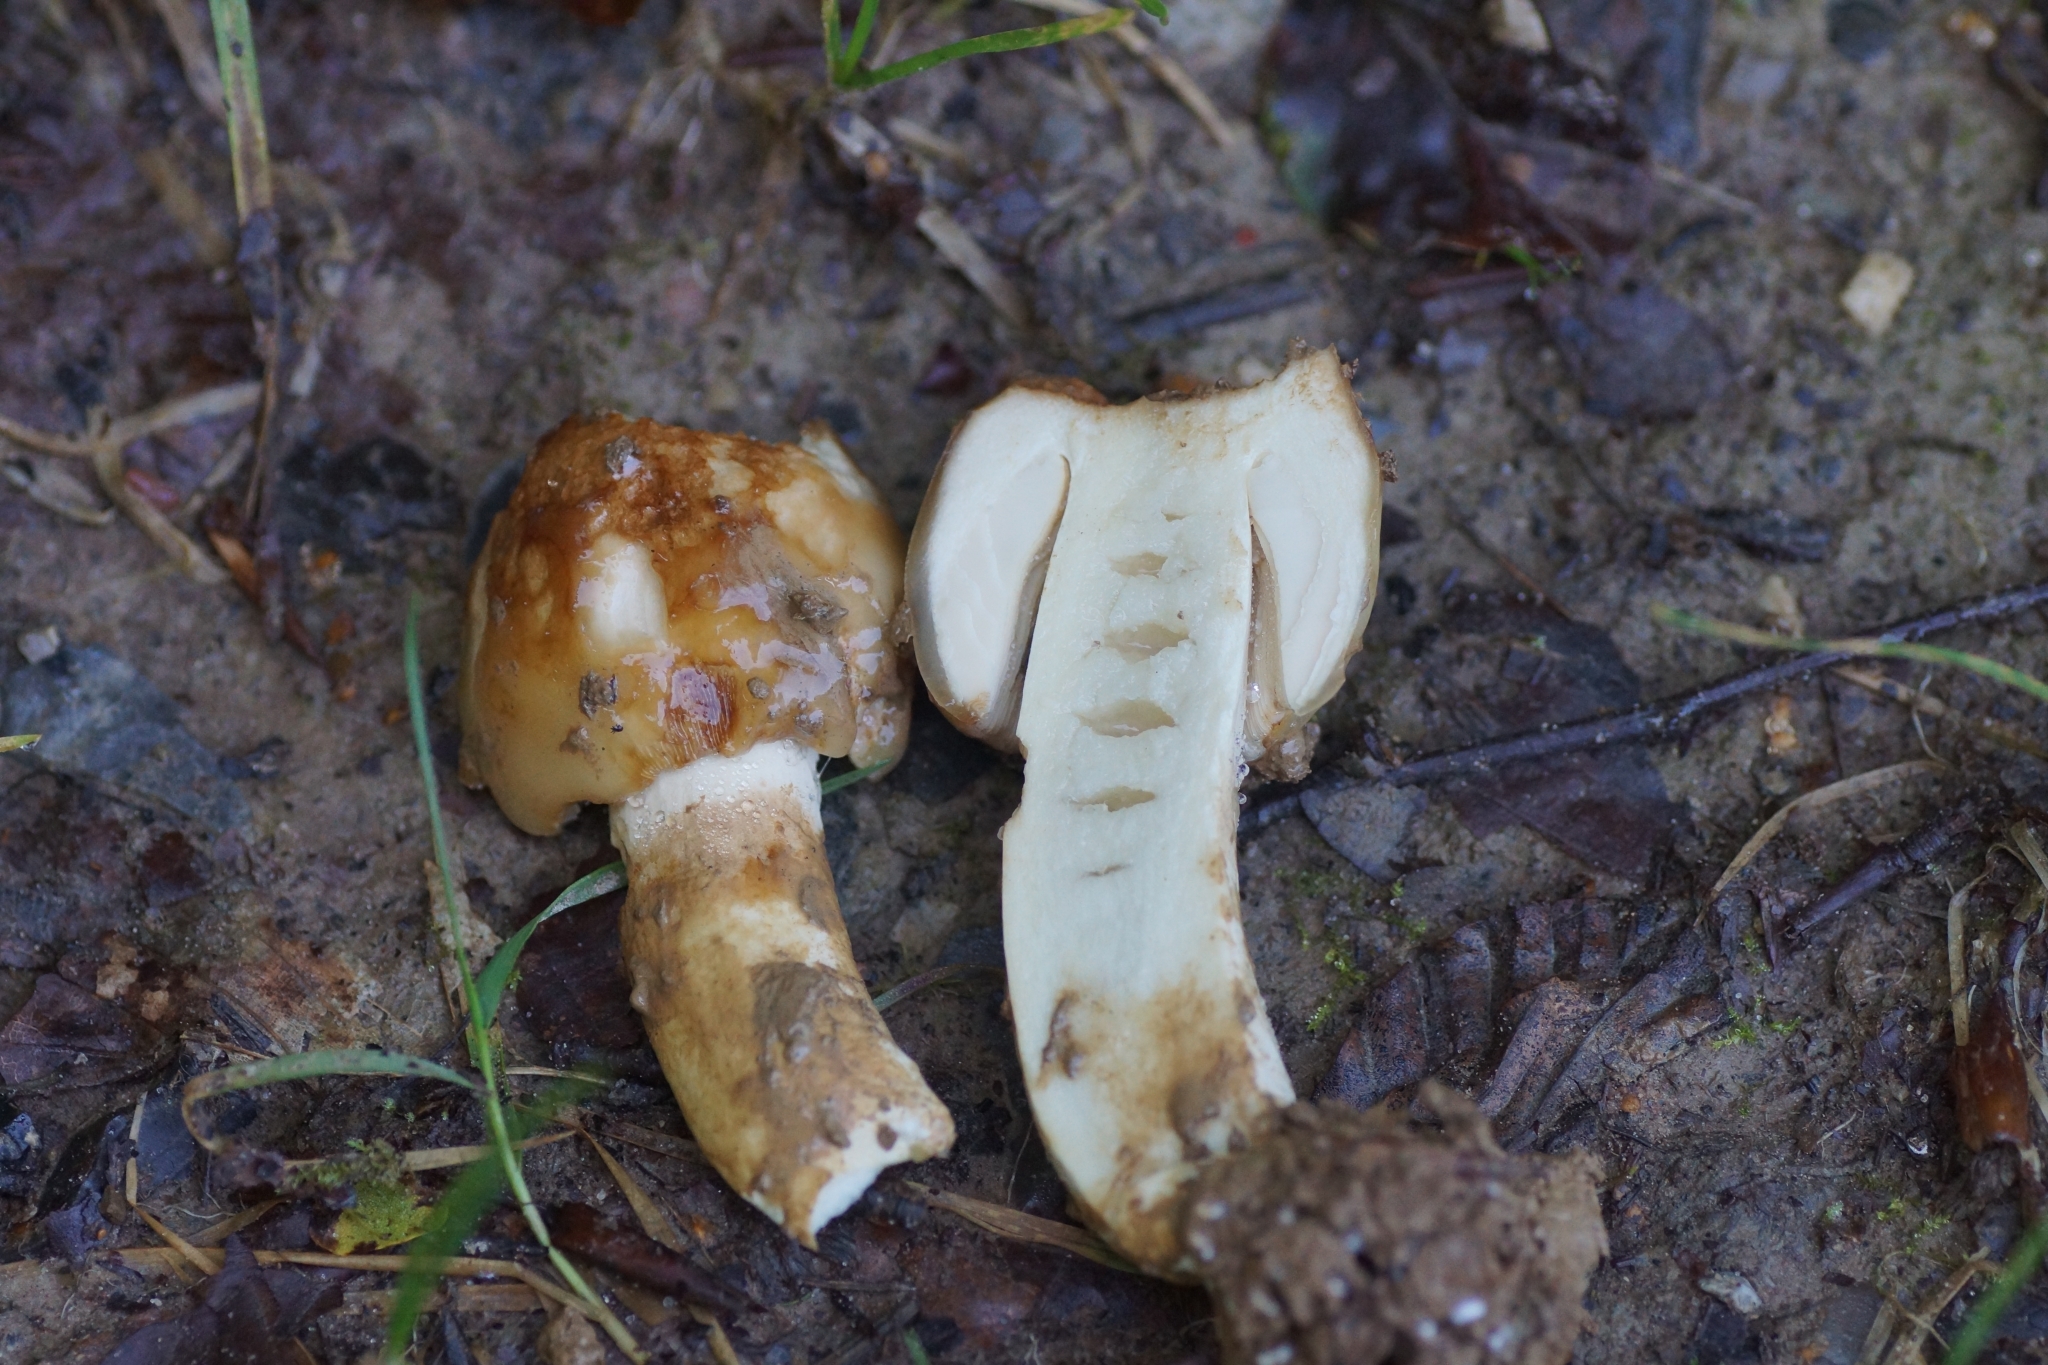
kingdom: Fungi
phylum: Basidiomycota
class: Agaricomycetes
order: Russulales
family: Russulaceae
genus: Russula
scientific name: Russula foetens
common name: Foetid russula
